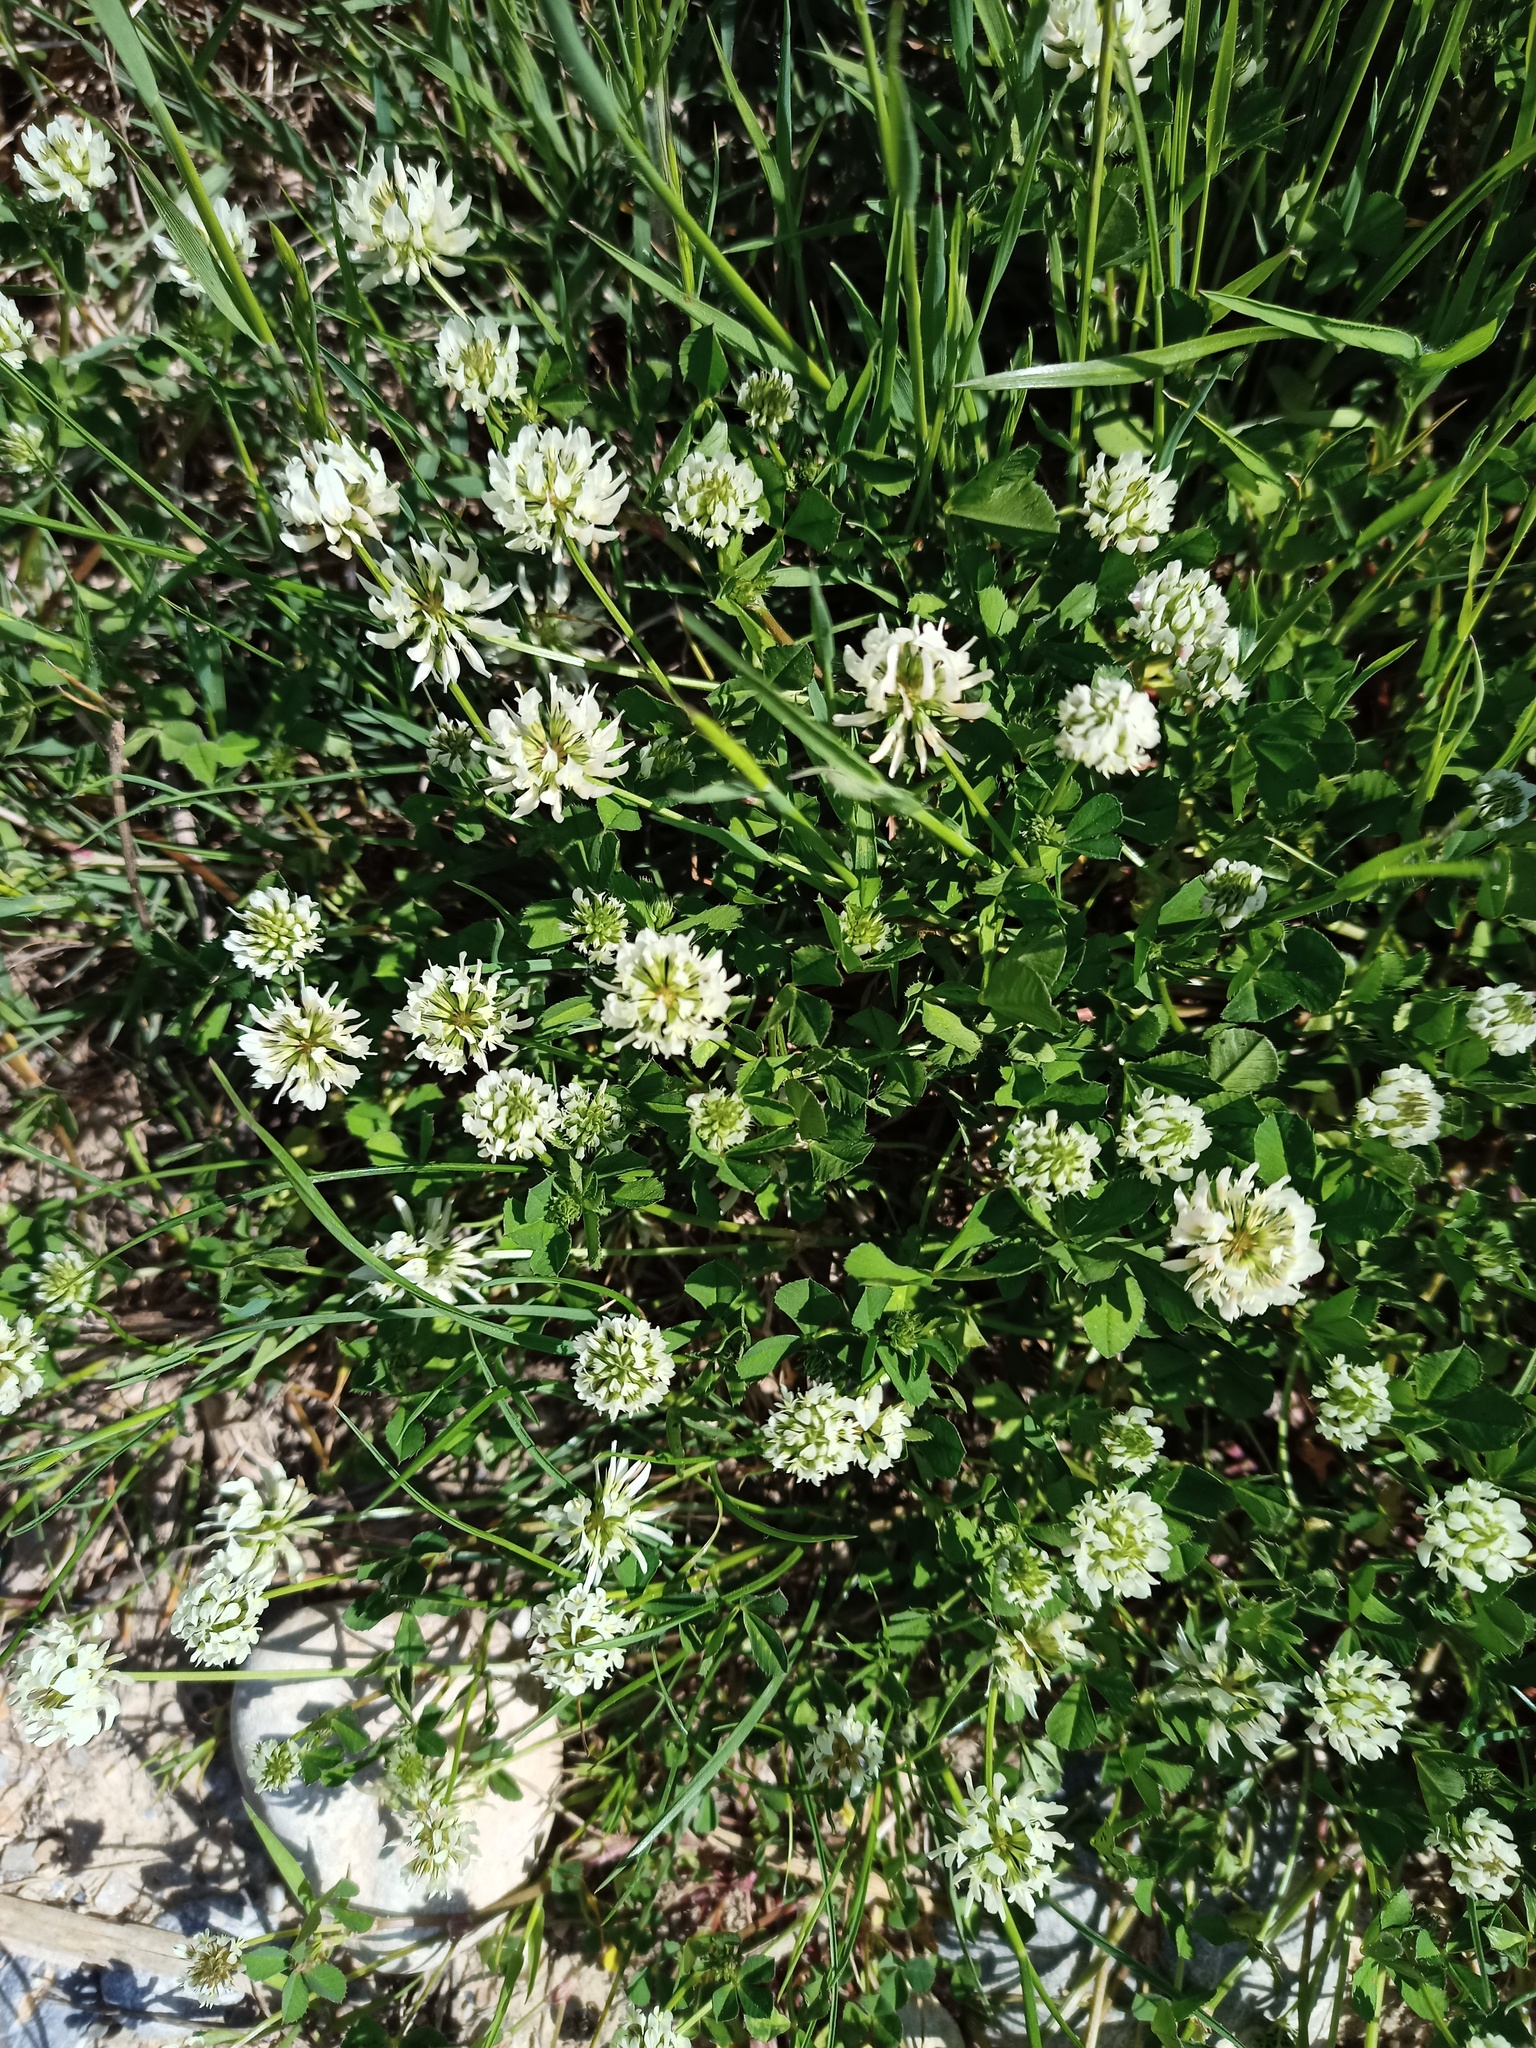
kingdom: Plantae
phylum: Tracheophyta
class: Magnoliopsida
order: Fabales
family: Fabaceae
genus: Trifolium
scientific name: Trifolium repens
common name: White clover
